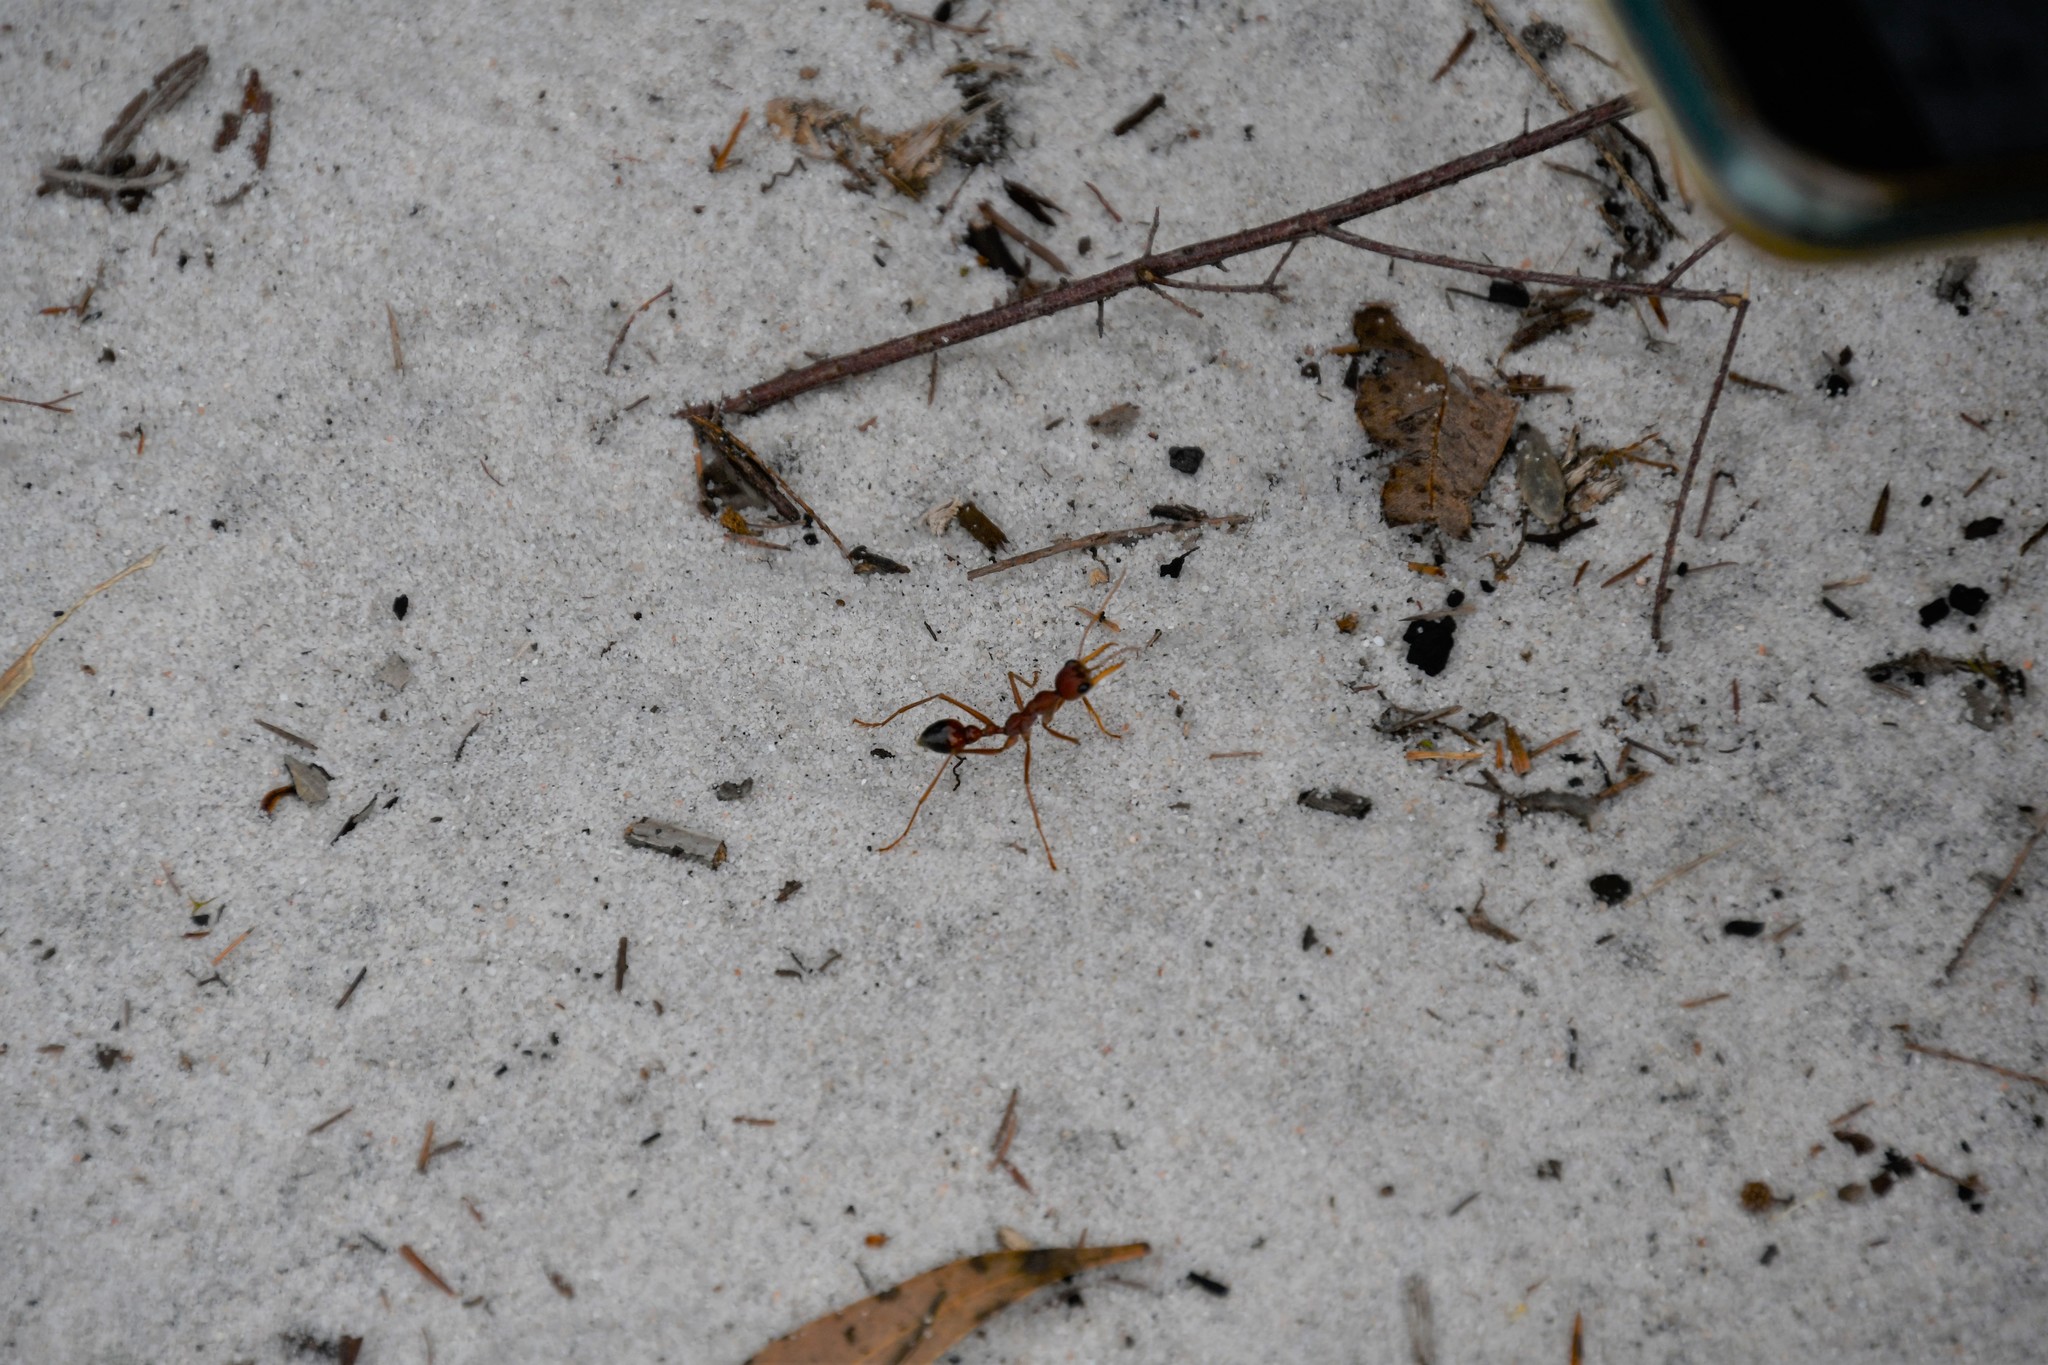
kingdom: Animalia
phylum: Arthropoda
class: Insecta
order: Hymenoptera
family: Formicidae
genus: Myrmecia
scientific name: Myrmecia gulosa
